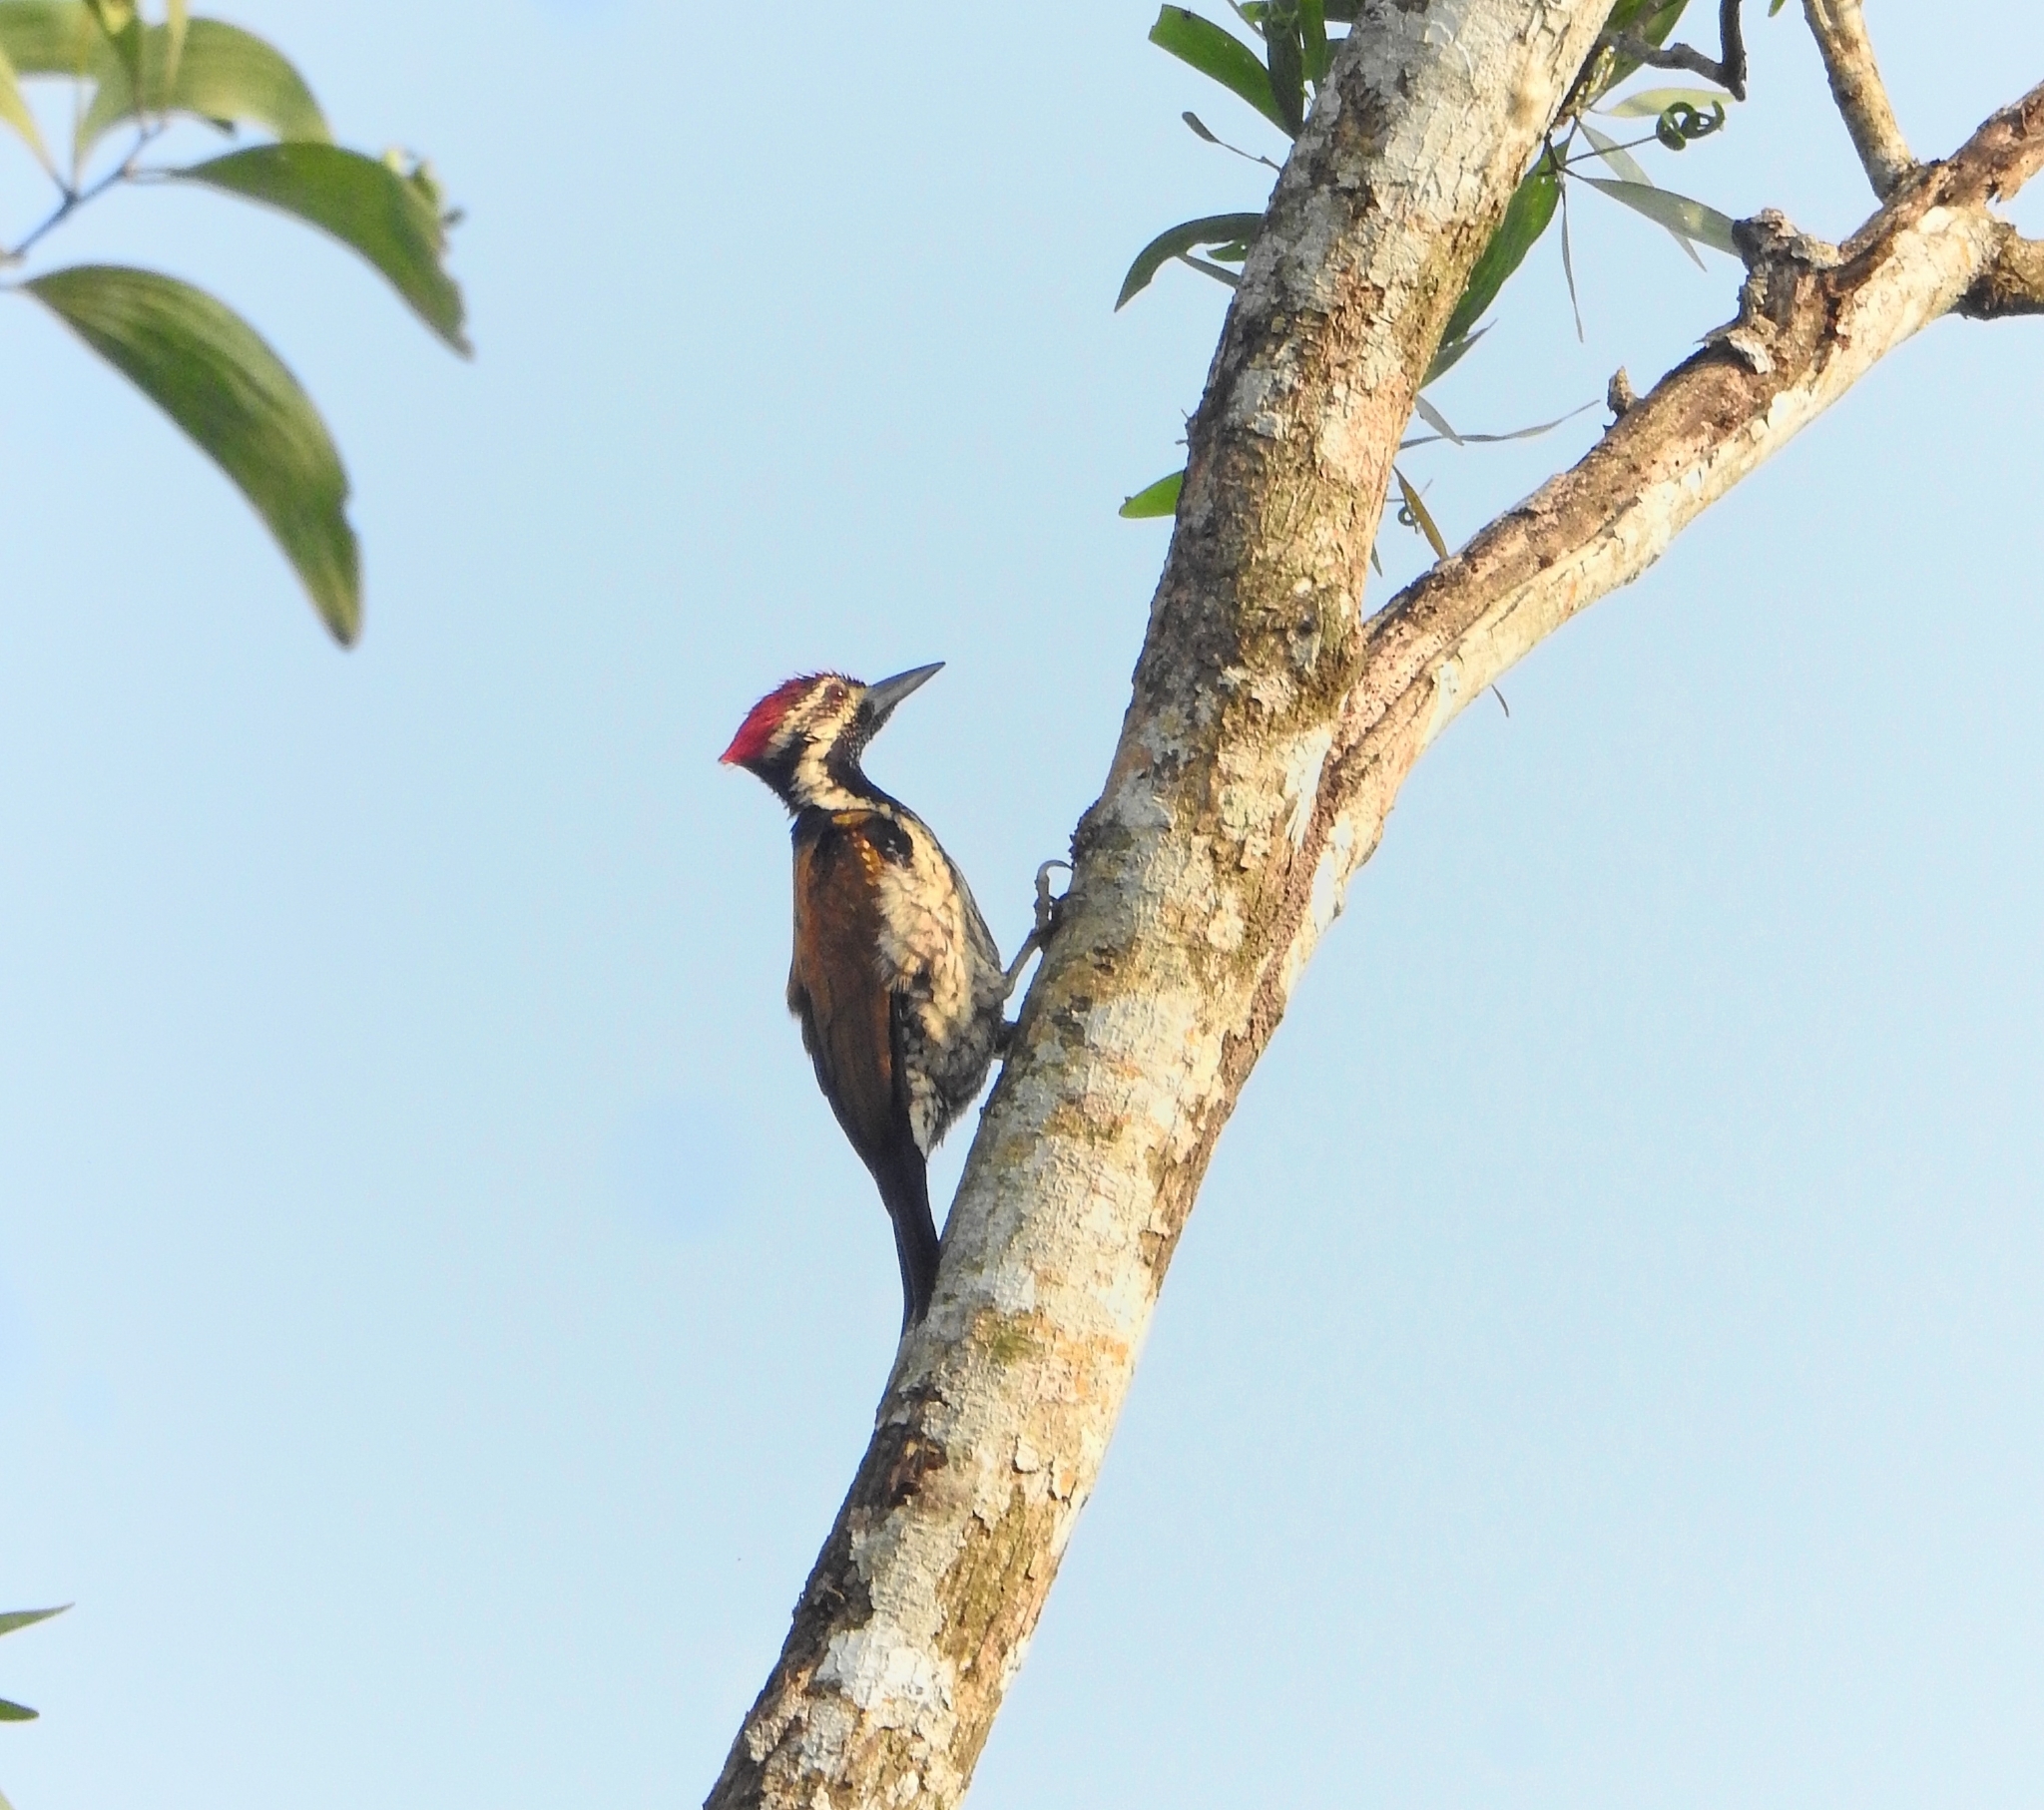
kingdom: Animalia
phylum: Chordata
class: Aves
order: Piciformes
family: Picidae
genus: Dinopium
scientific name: Dinopium benghalense
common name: Black-rumped flameback
